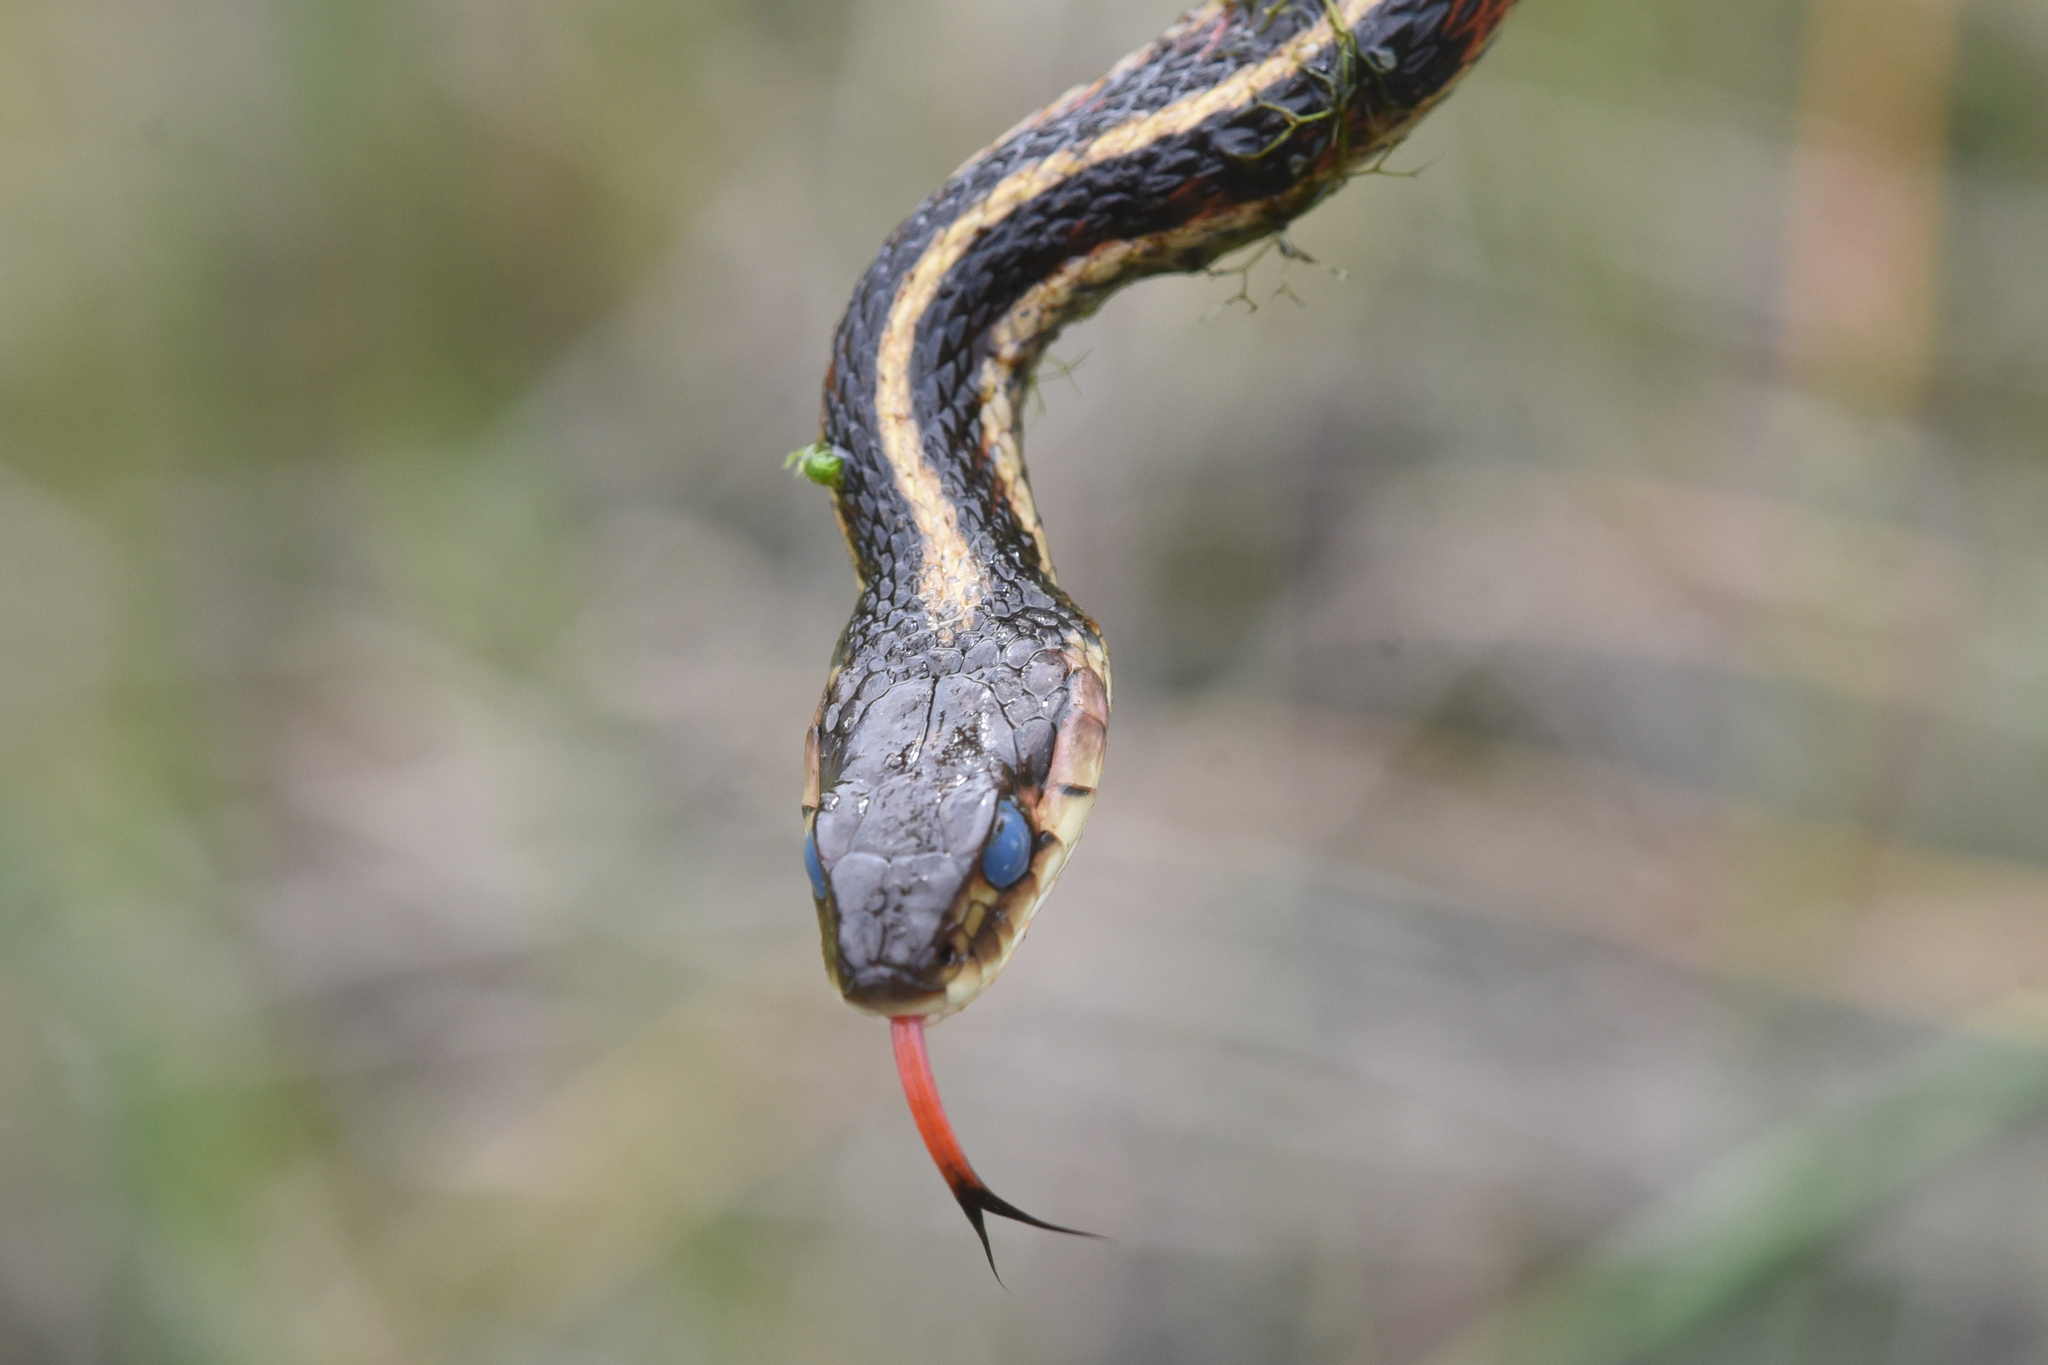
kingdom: Animalia
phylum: Chordata
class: Squamata
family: Colubridae
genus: Thamnophis
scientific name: Thamnophis elegans
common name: Western terrestrial garter snake
